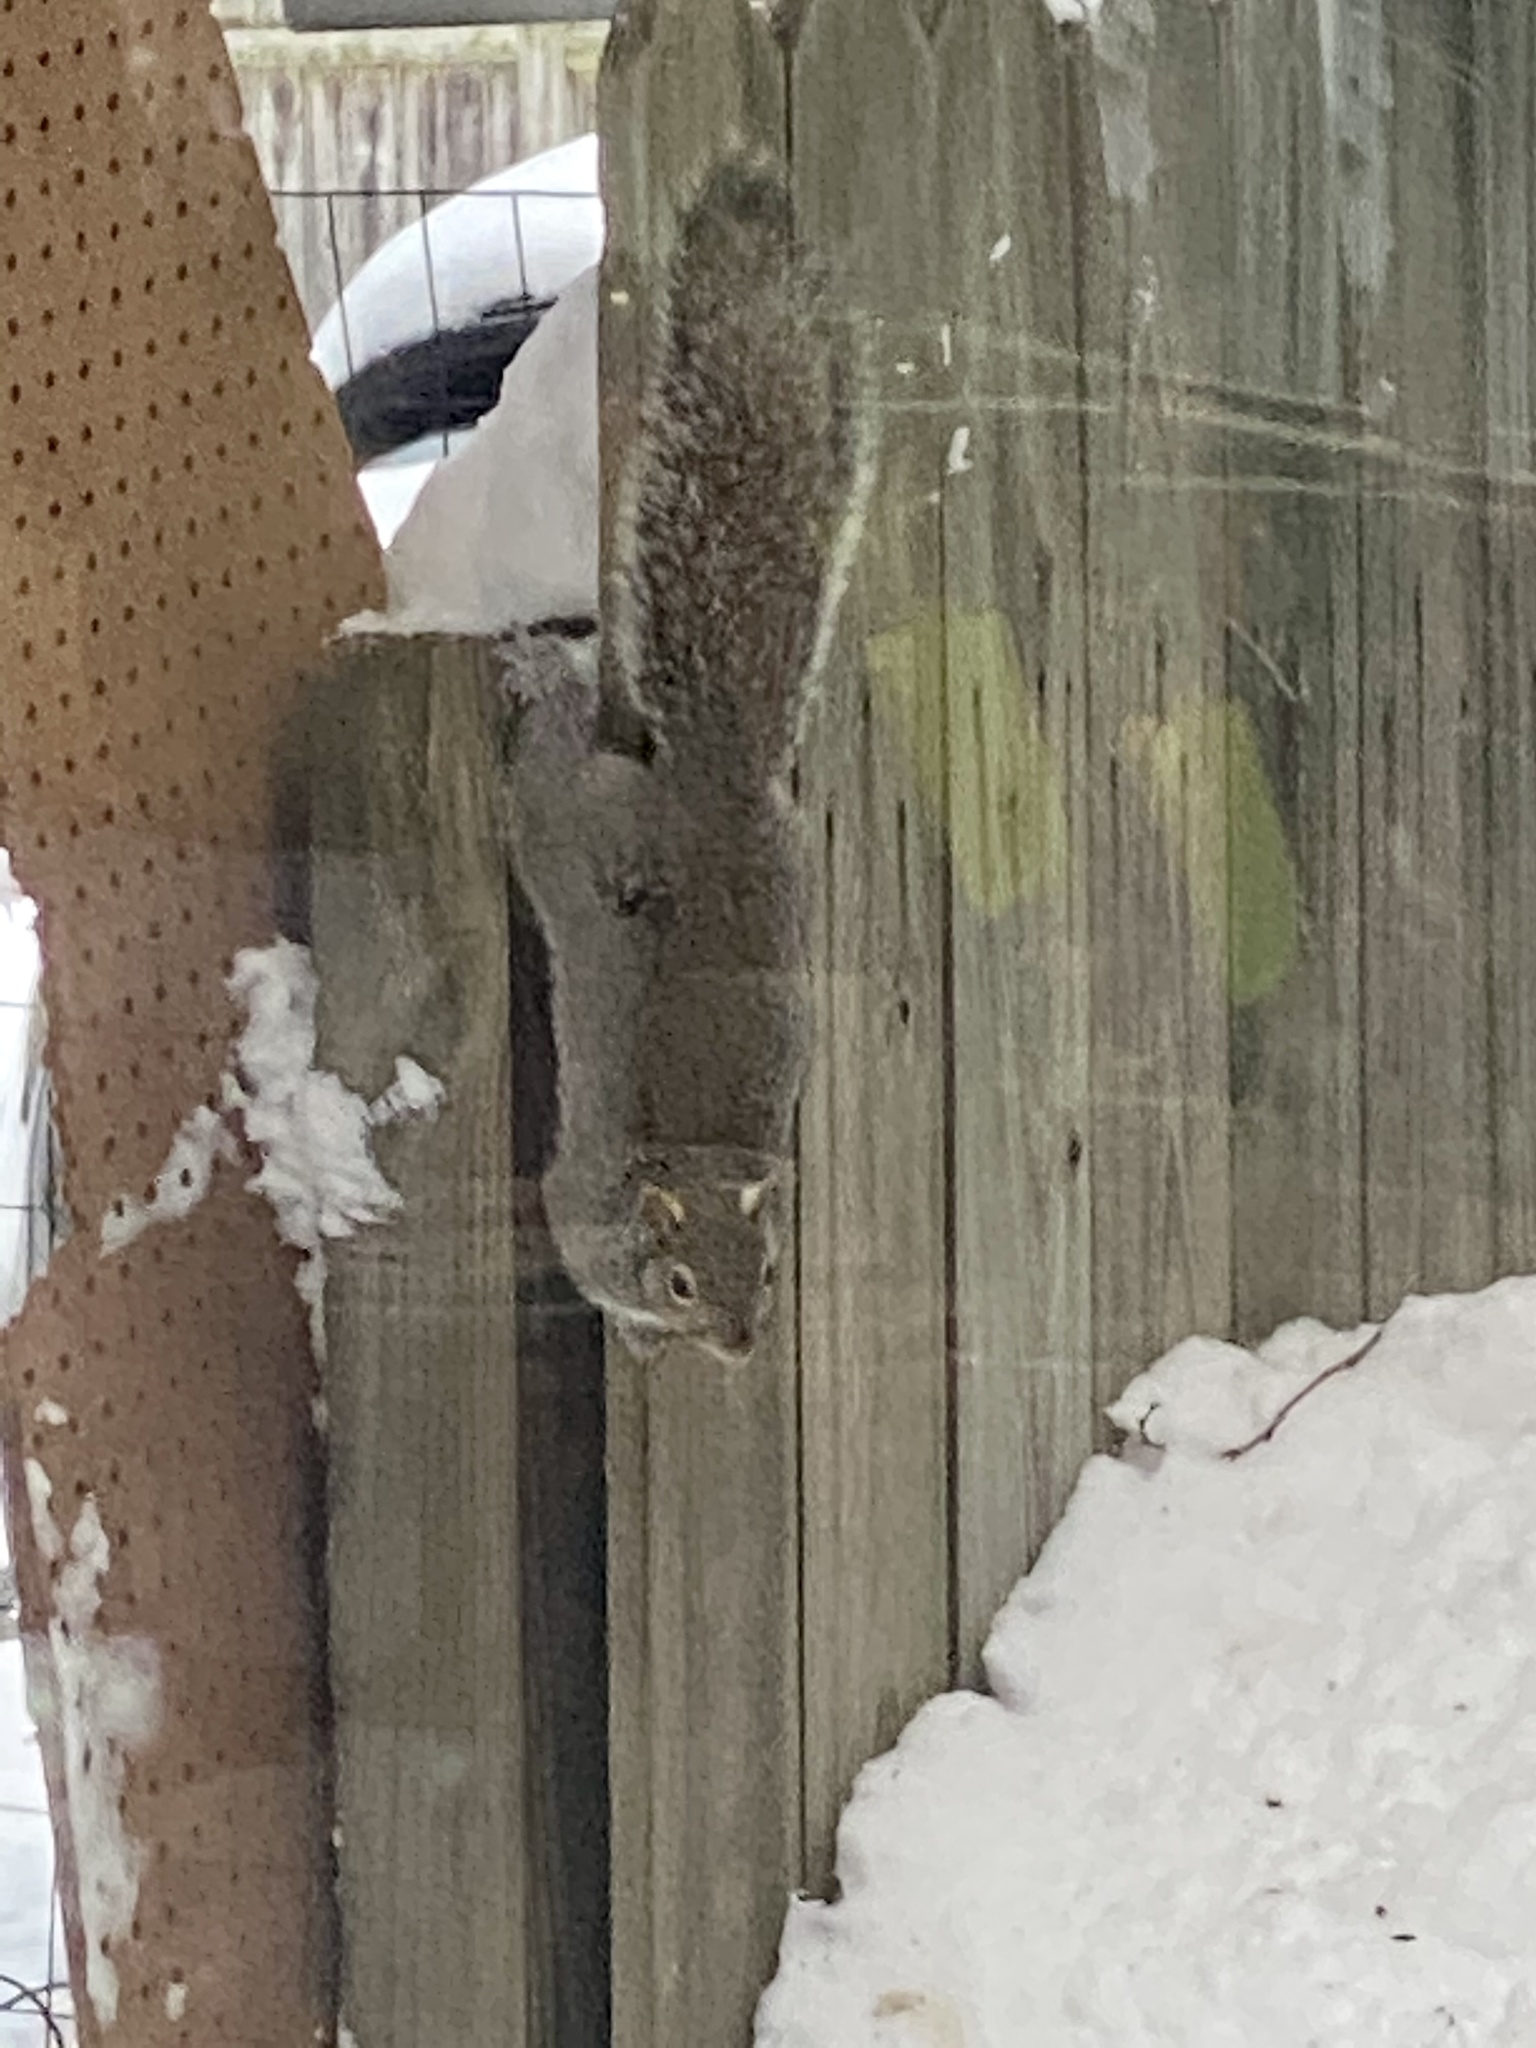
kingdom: Animalia
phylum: Chordata
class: Mammalia
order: Rodentia
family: Sciuridae
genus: Sciurus
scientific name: Sciurus carolinensis
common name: Eastern gray squirrel
